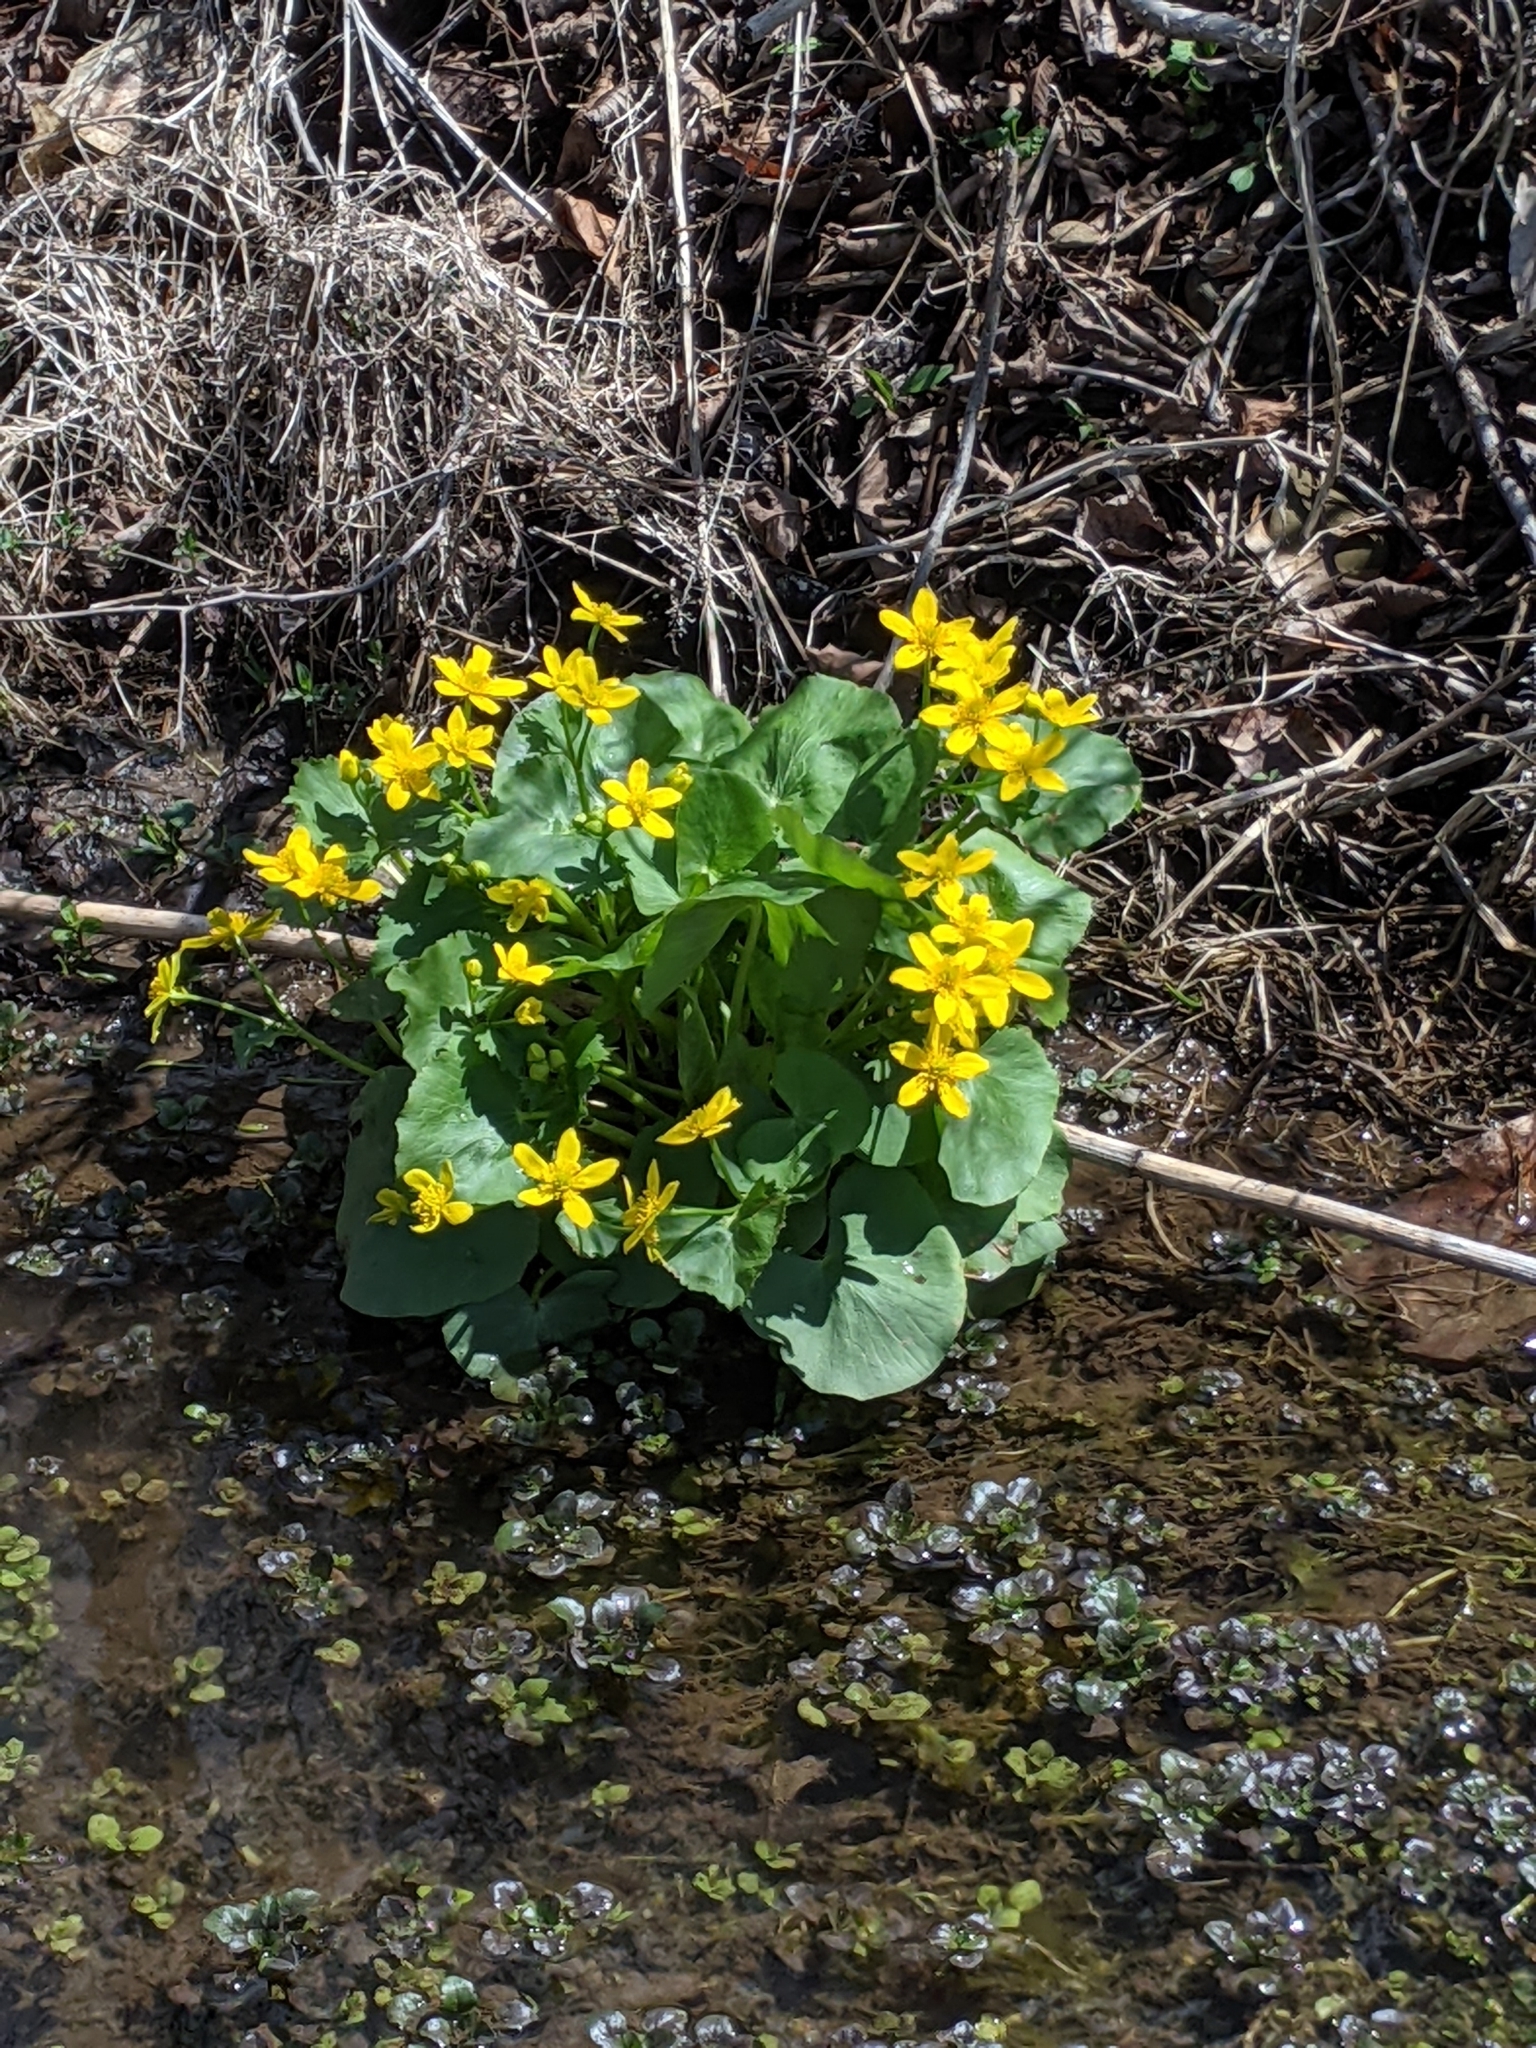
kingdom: Plantae
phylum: Tracheophyta
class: Magnoliopsida
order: Ranunculales
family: Ranunculaceae
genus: Caltha
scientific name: Caltha palustris
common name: Marsh marigold
